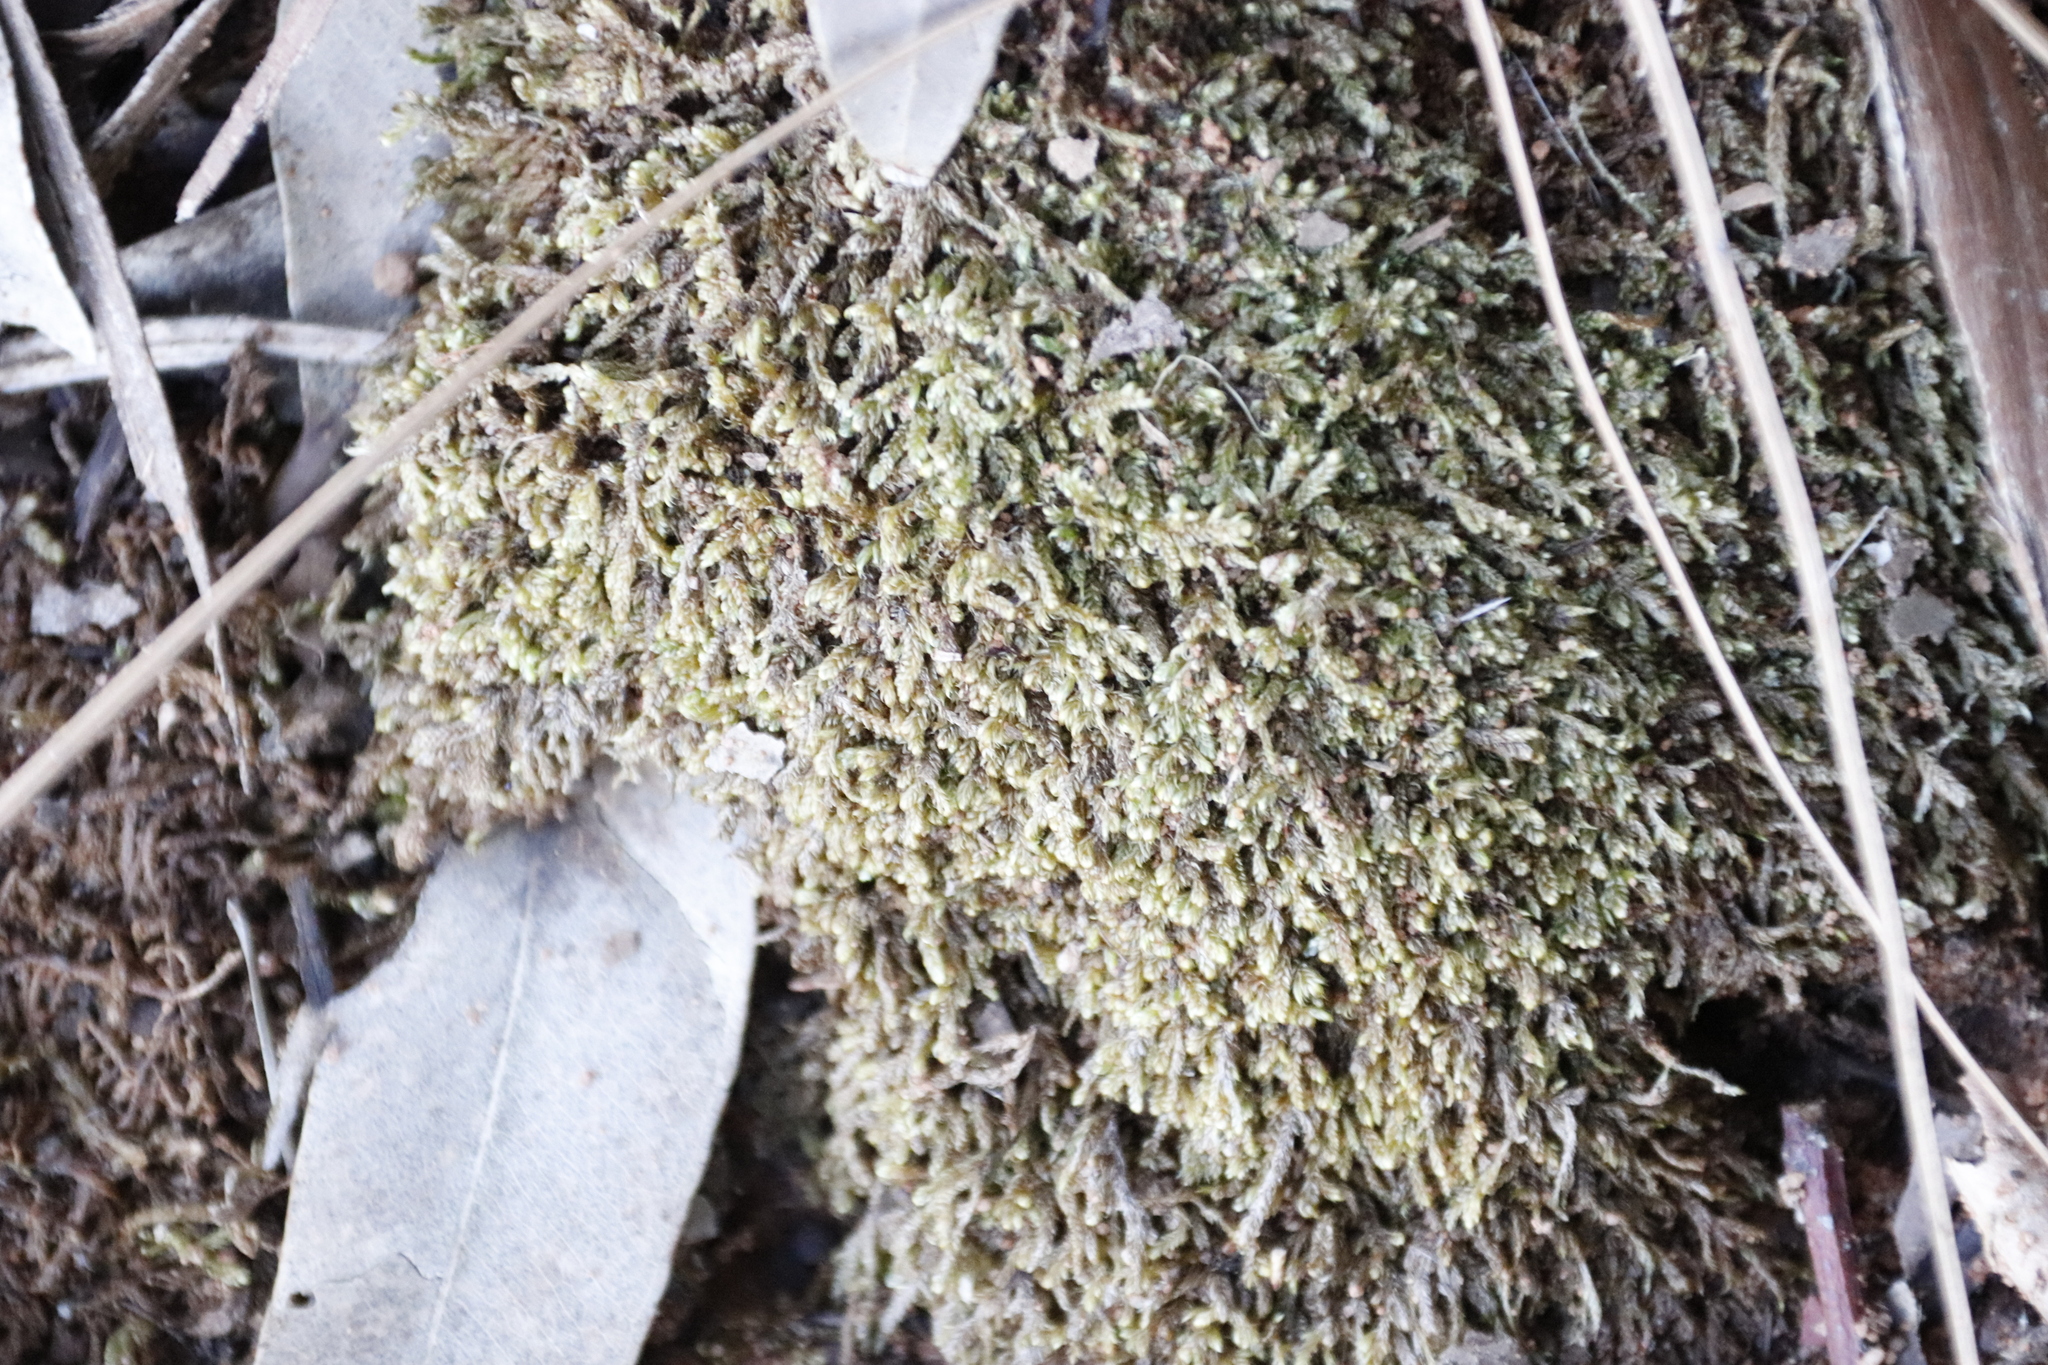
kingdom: Plantae
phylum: Bryophyta
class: Bryopsida
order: Hypnales
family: Hypnaceae
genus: Hypnum
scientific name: Hypnum cupressiforme
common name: Cypress-leaved plait-moss
